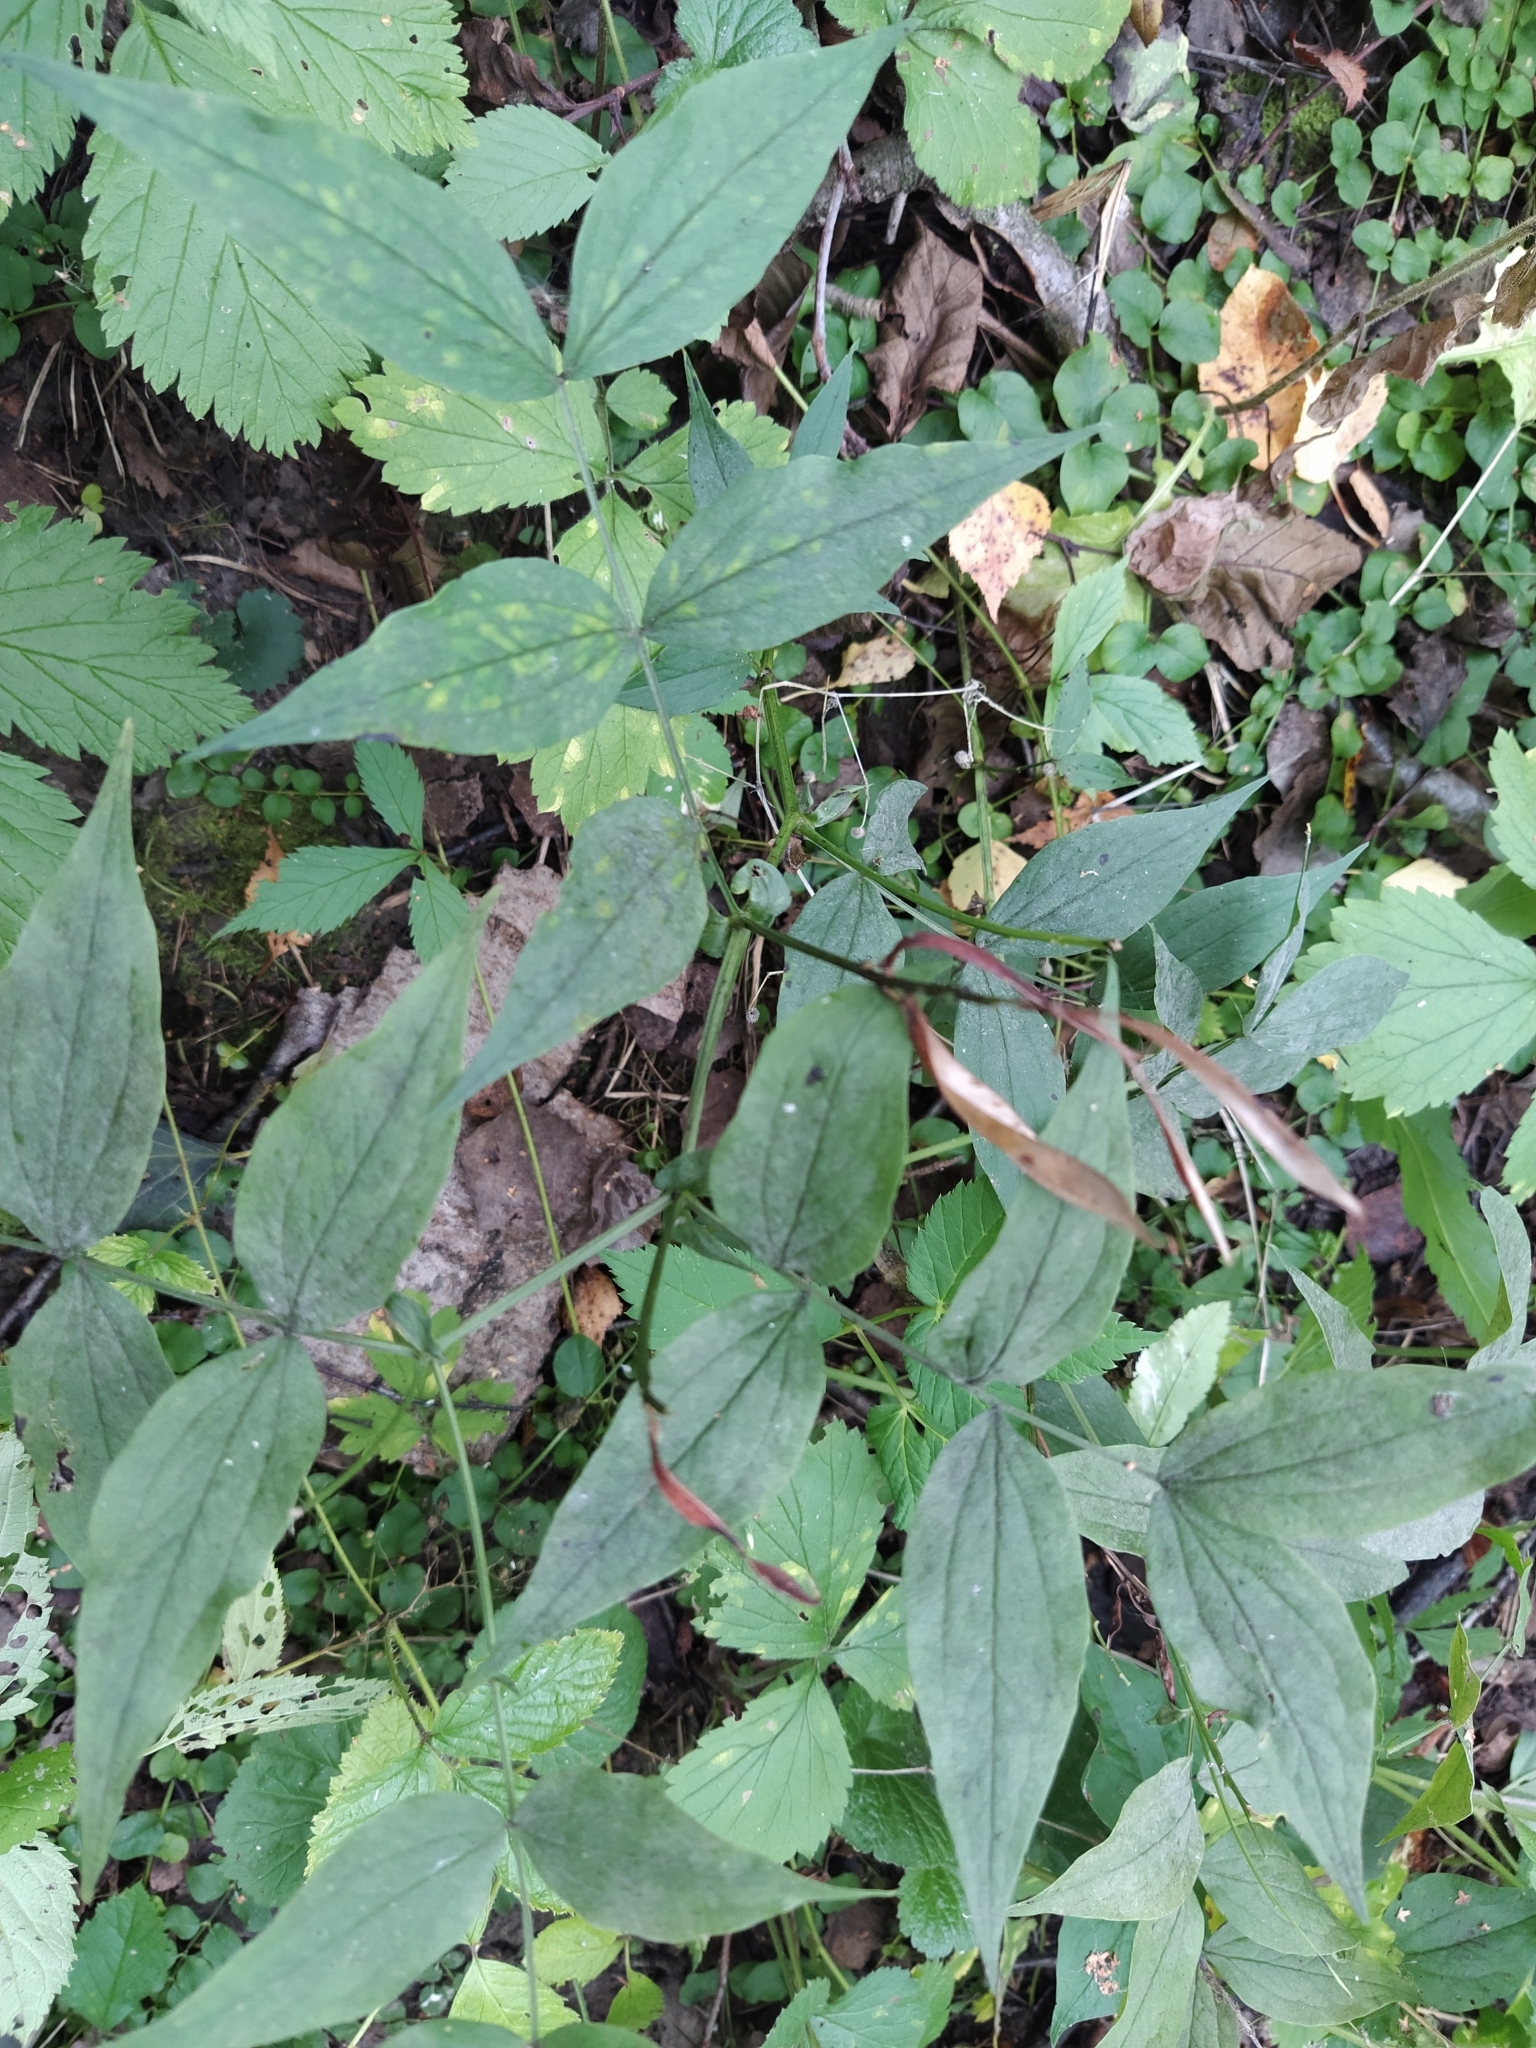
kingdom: Plantae
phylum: Tracheophyta
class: Magnoliopsida
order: Fabales
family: Fabaceae
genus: Lathyrus
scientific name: Lathyrus vernus
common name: Spring pea
